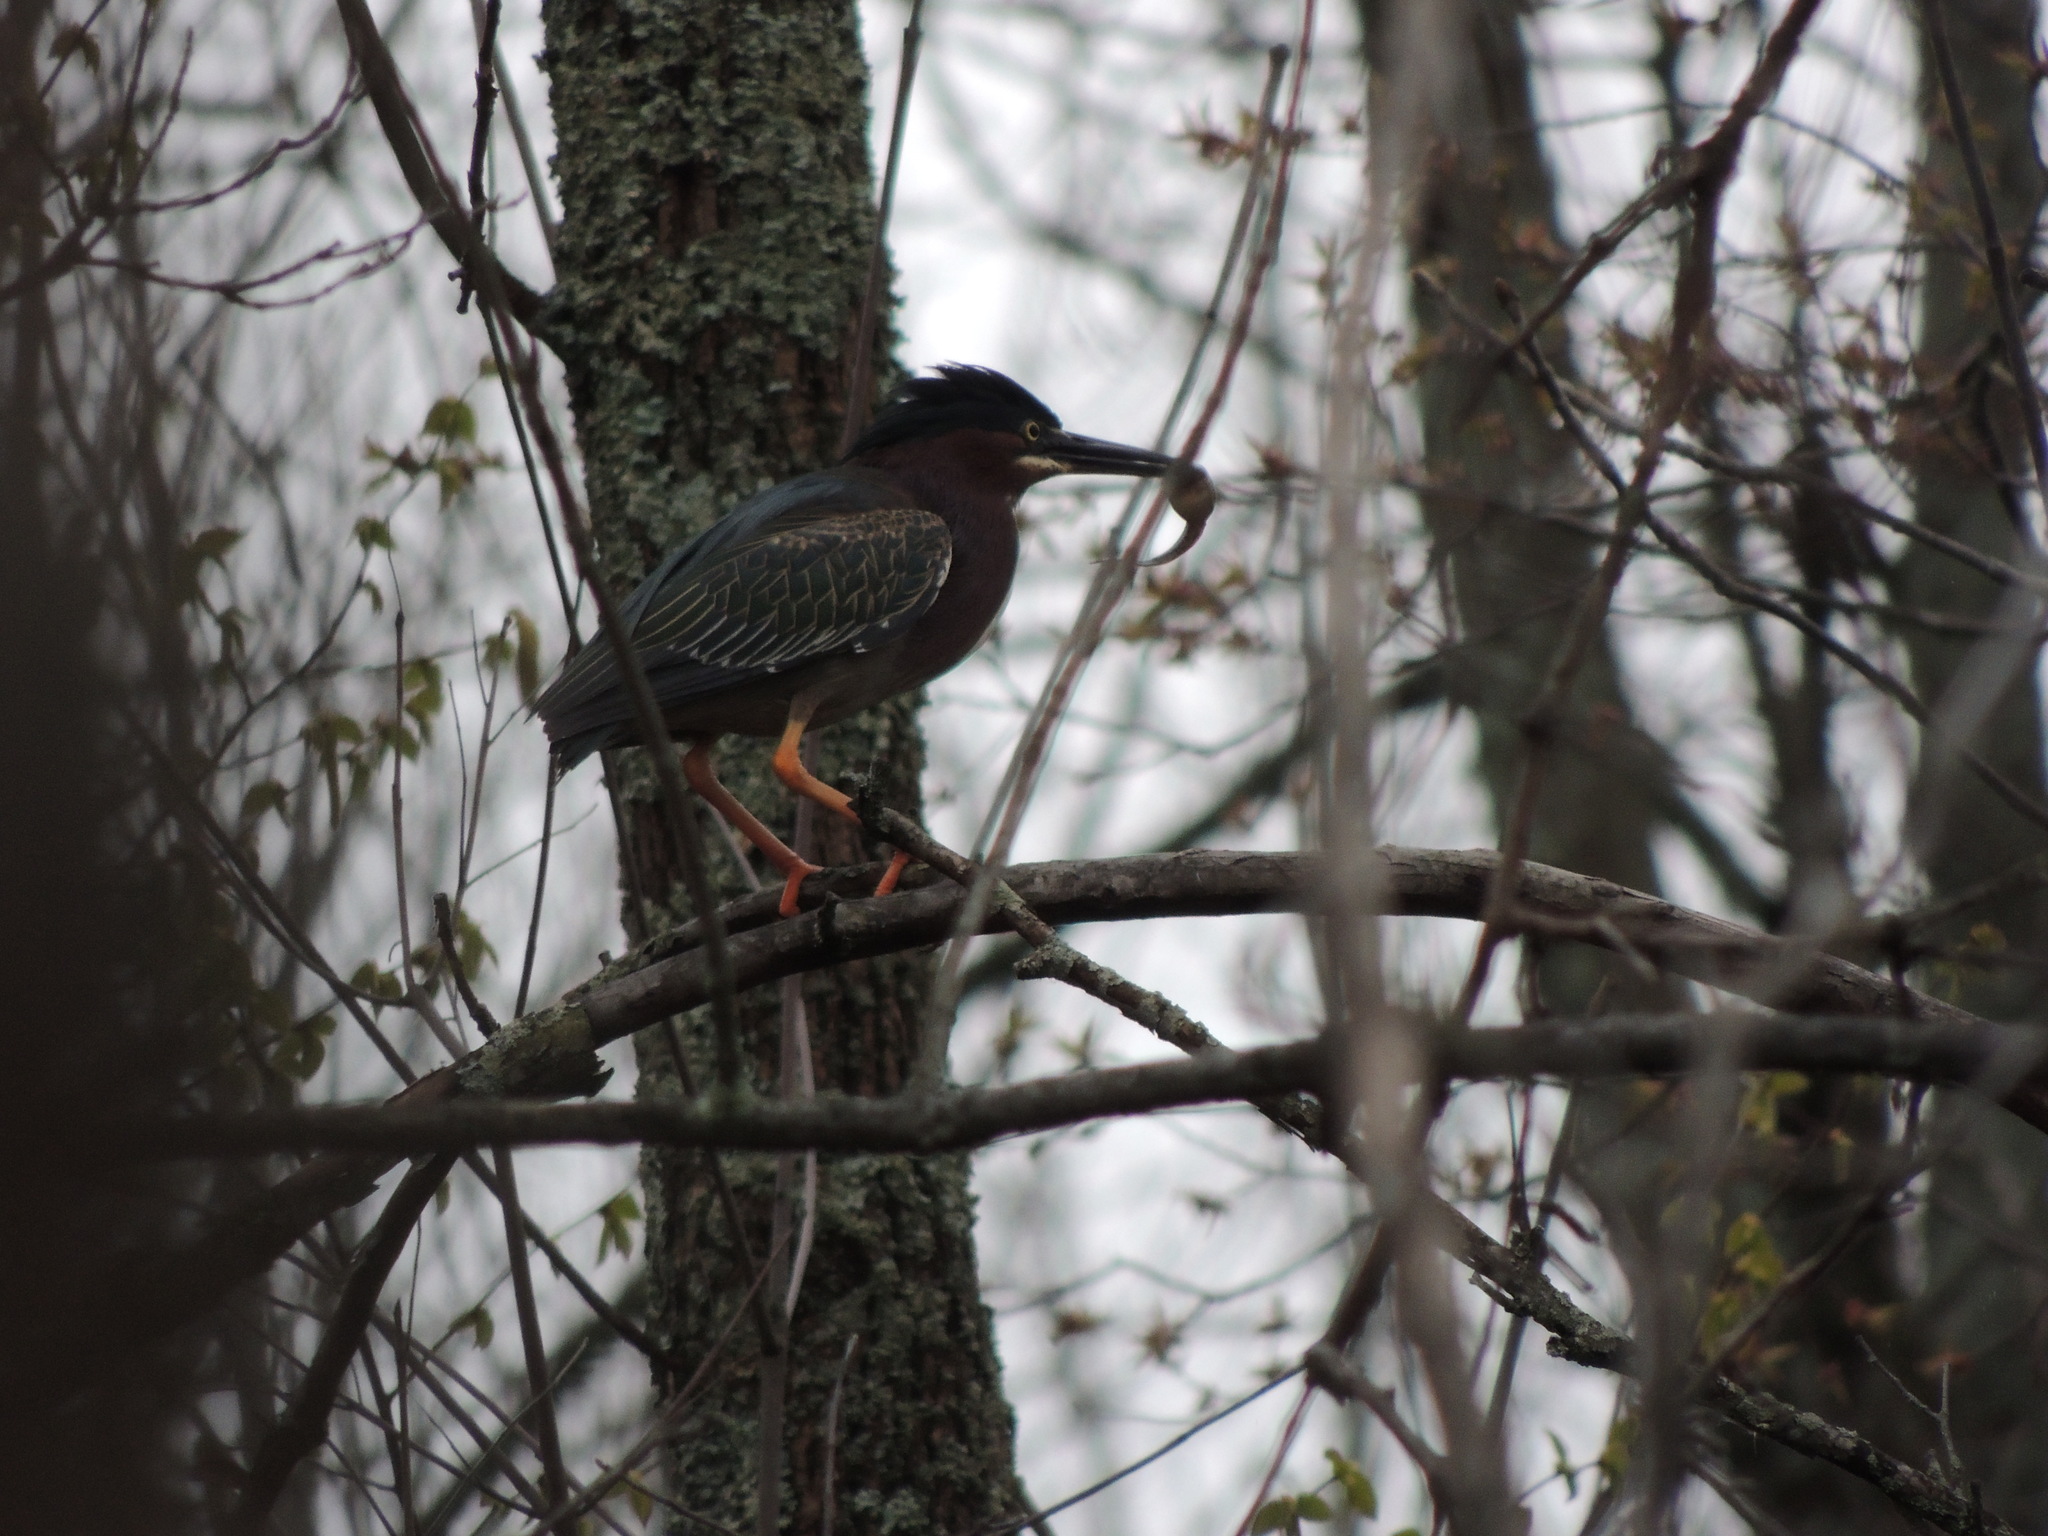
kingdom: Animalia
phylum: Chordata
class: Aves
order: Pelecaniformes
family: Ardeidae
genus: Butorides
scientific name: Butorides virescens
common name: Green heron
